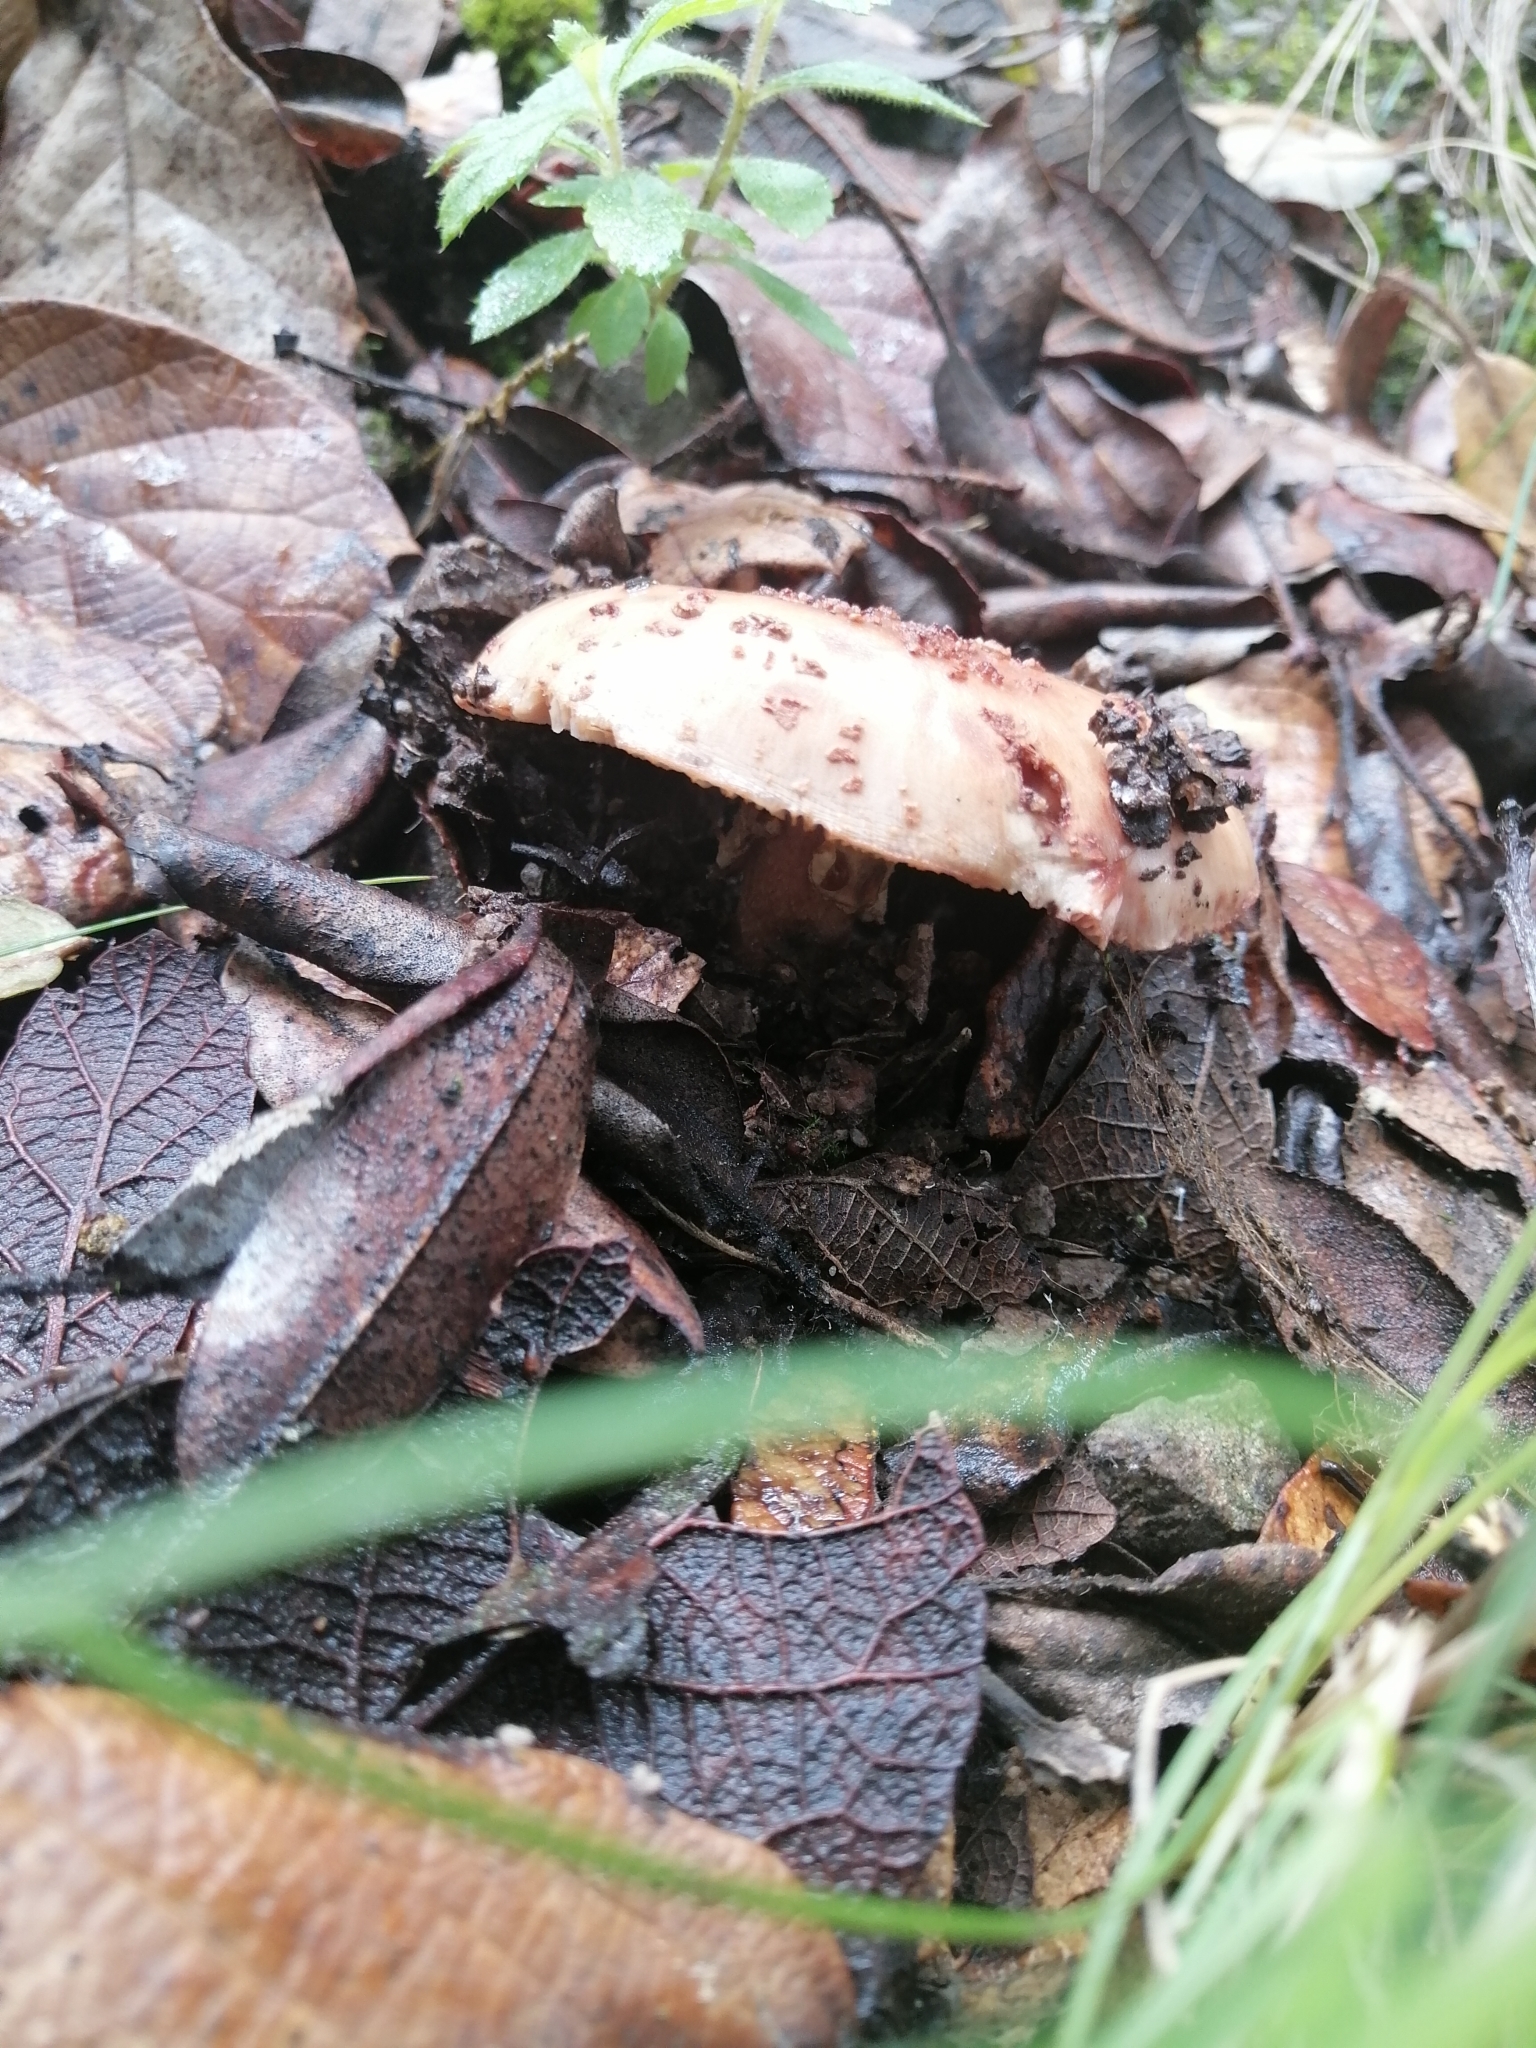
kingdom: Fungi
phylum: Basidiomycota
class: Agaricomycetes
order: Agaricales
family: Amanitaceae
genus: Amanita
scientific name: Amanita brunneolocularis
